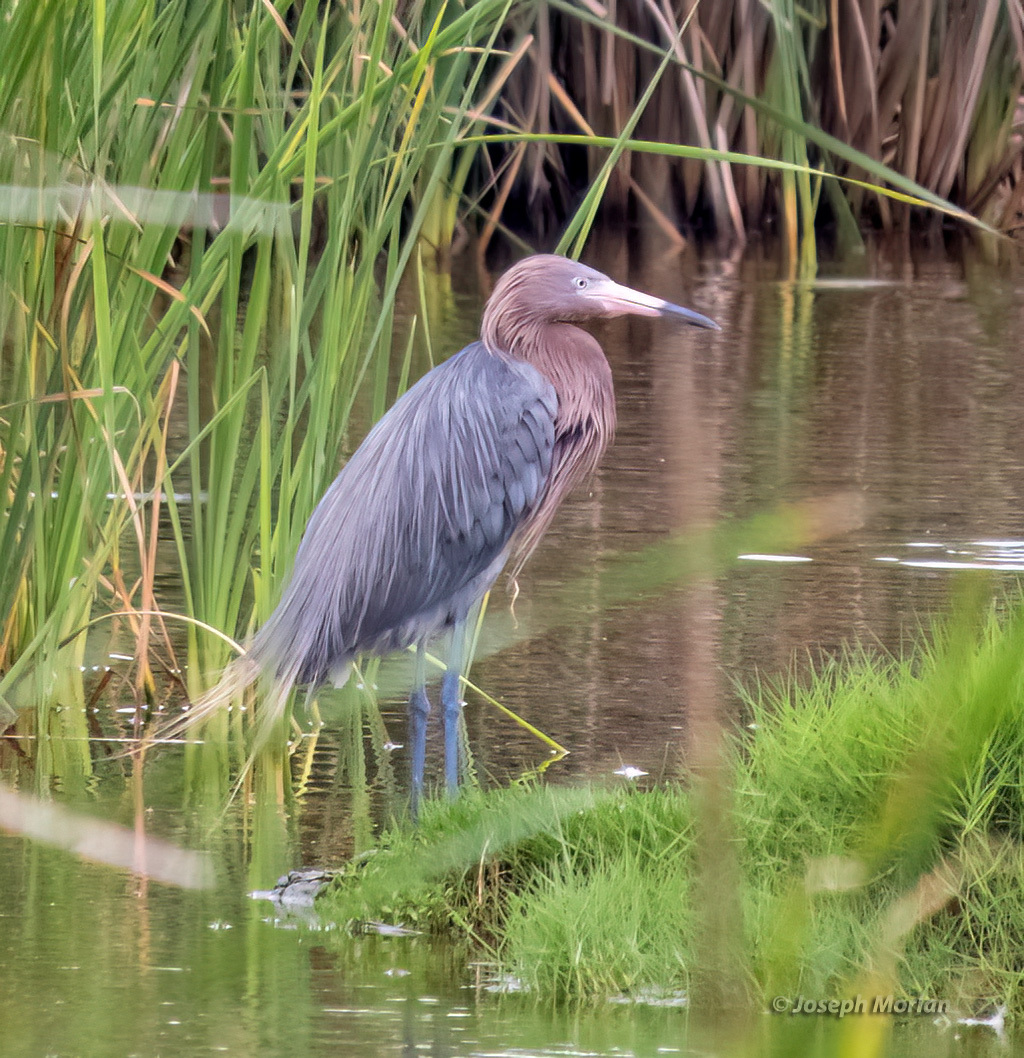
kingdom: Animalia
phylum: Chordata
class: Aves
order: Pelecaniformes
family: Ardeidae
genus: Egretta
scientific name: Egretta rufescens
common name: Reddish egret
